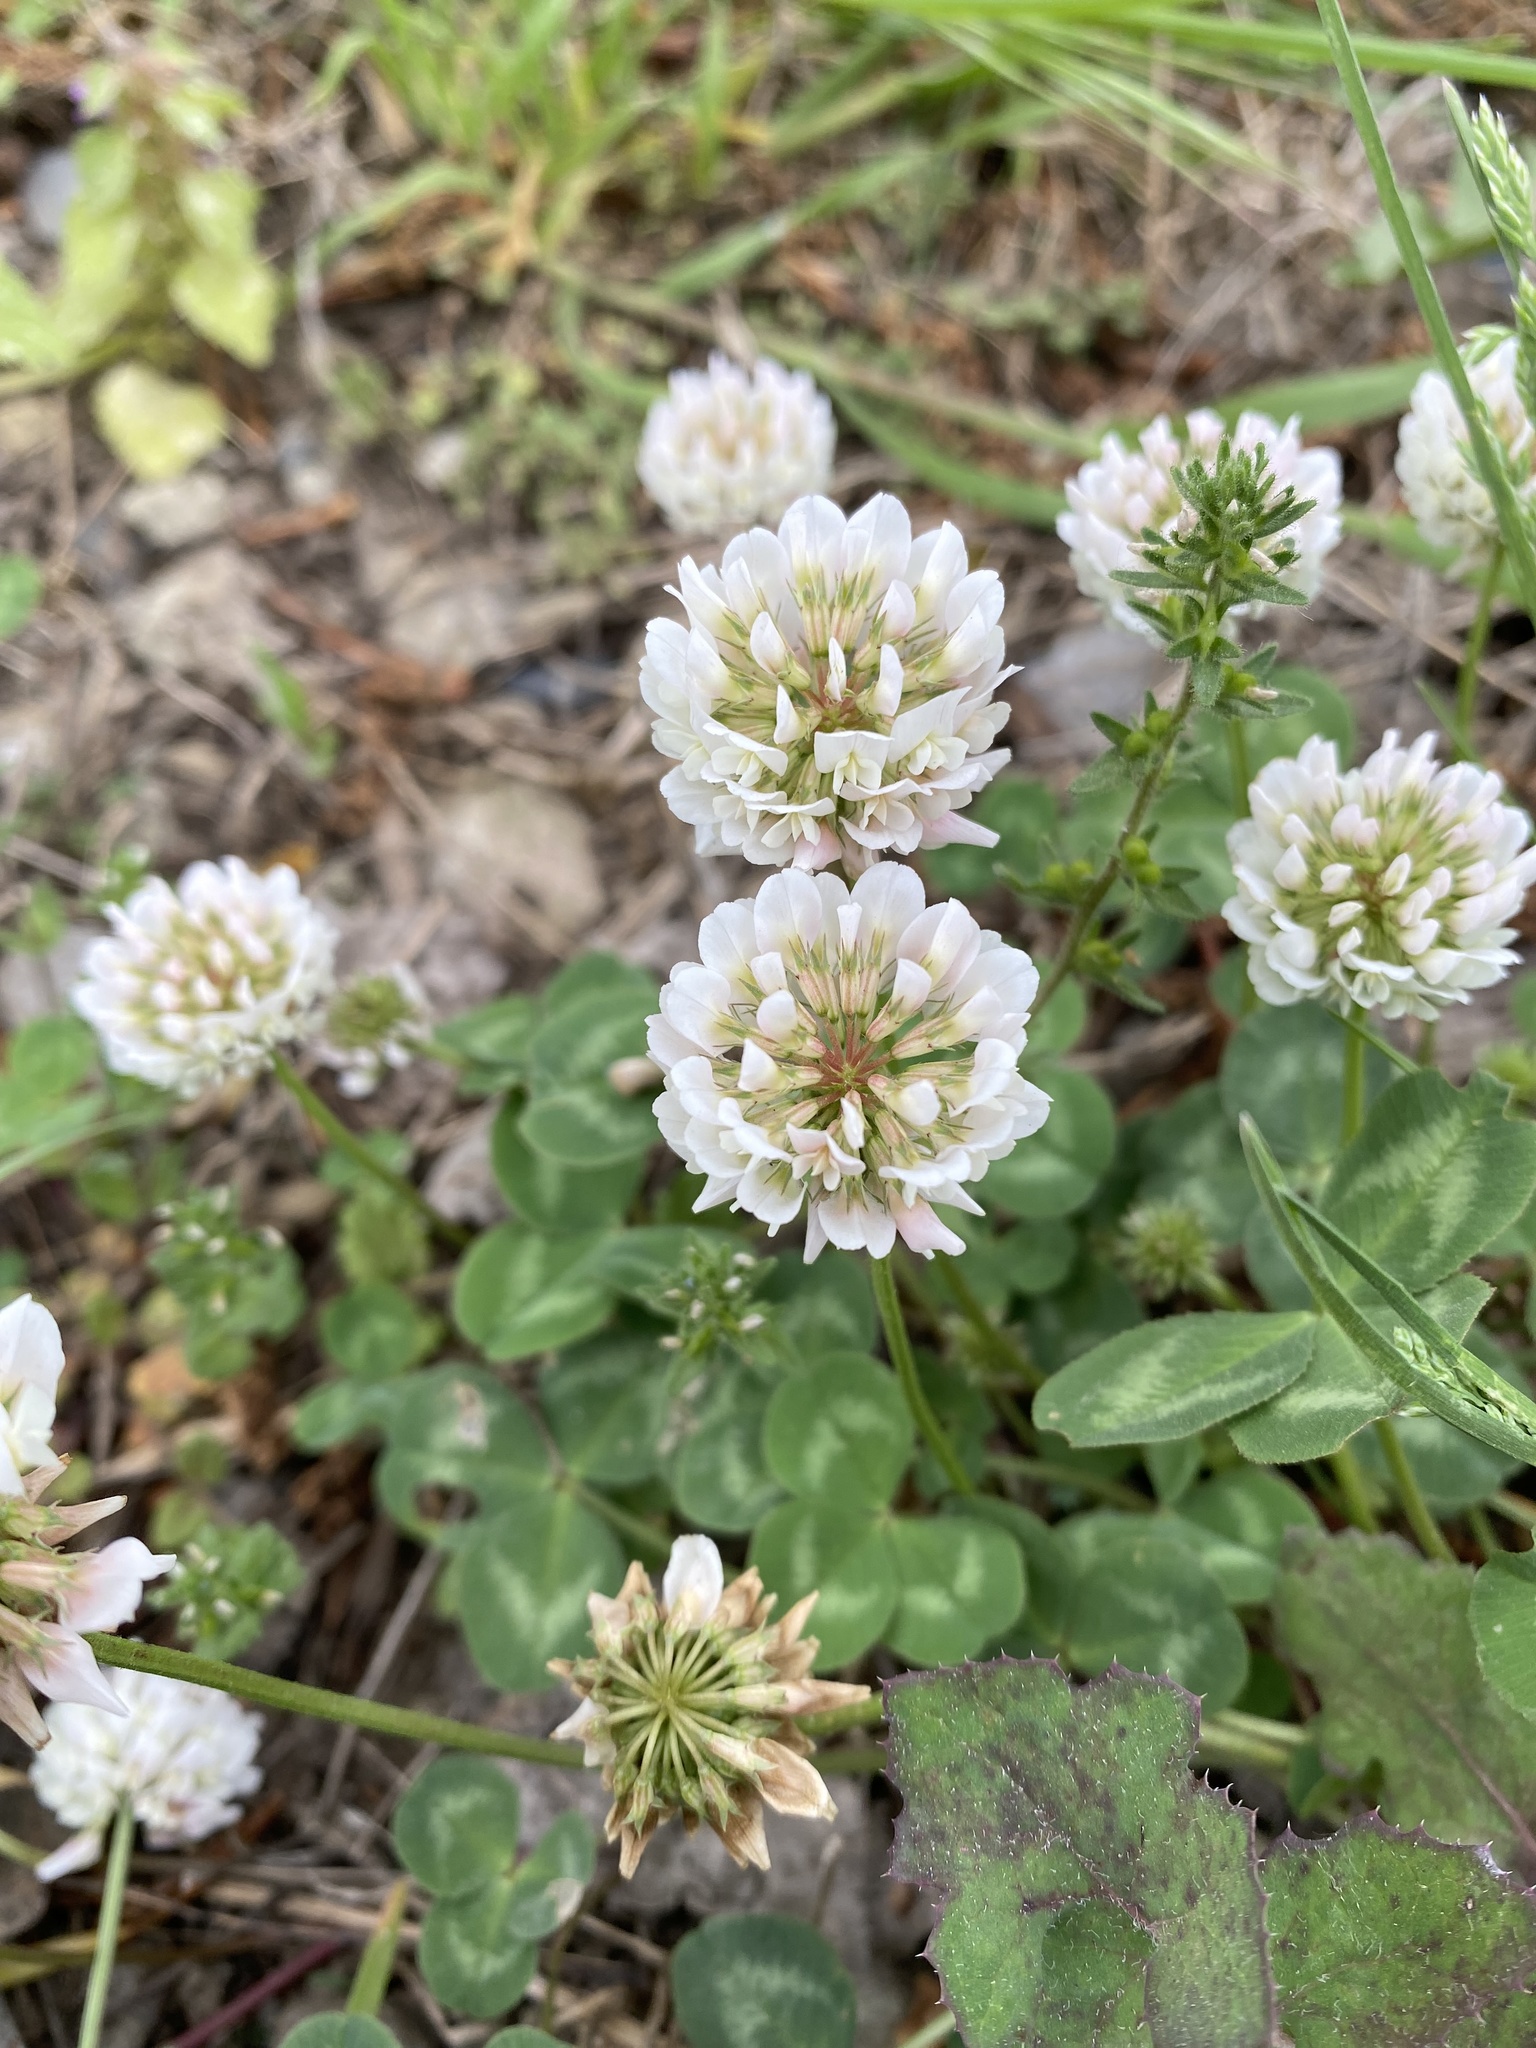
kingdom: Plantae
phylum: Tracheophyta
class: Magnoliopsida
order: Fabales
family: Fabaceae
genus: Trifolium
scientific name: Trifolium repens
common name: White clover
